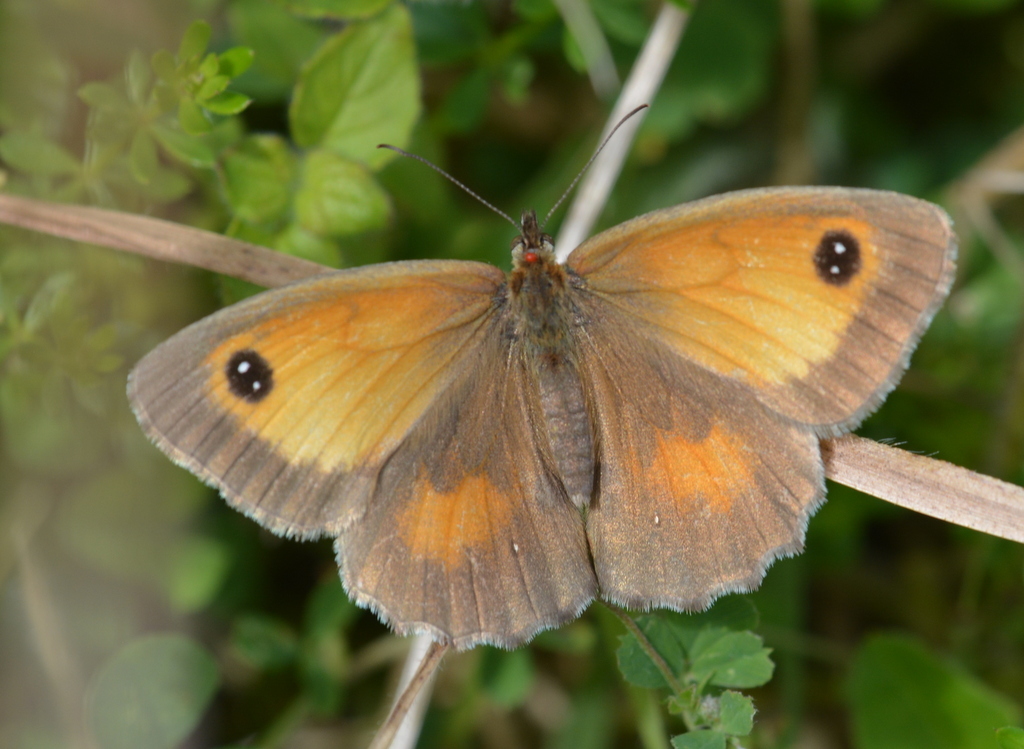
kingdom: Animalia
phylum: Arthropoda
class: Insecta
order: Lepidoptera
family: Nymphalidae
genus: Pyronia
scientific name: Pyronia tithonus
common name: Gatekeeper
